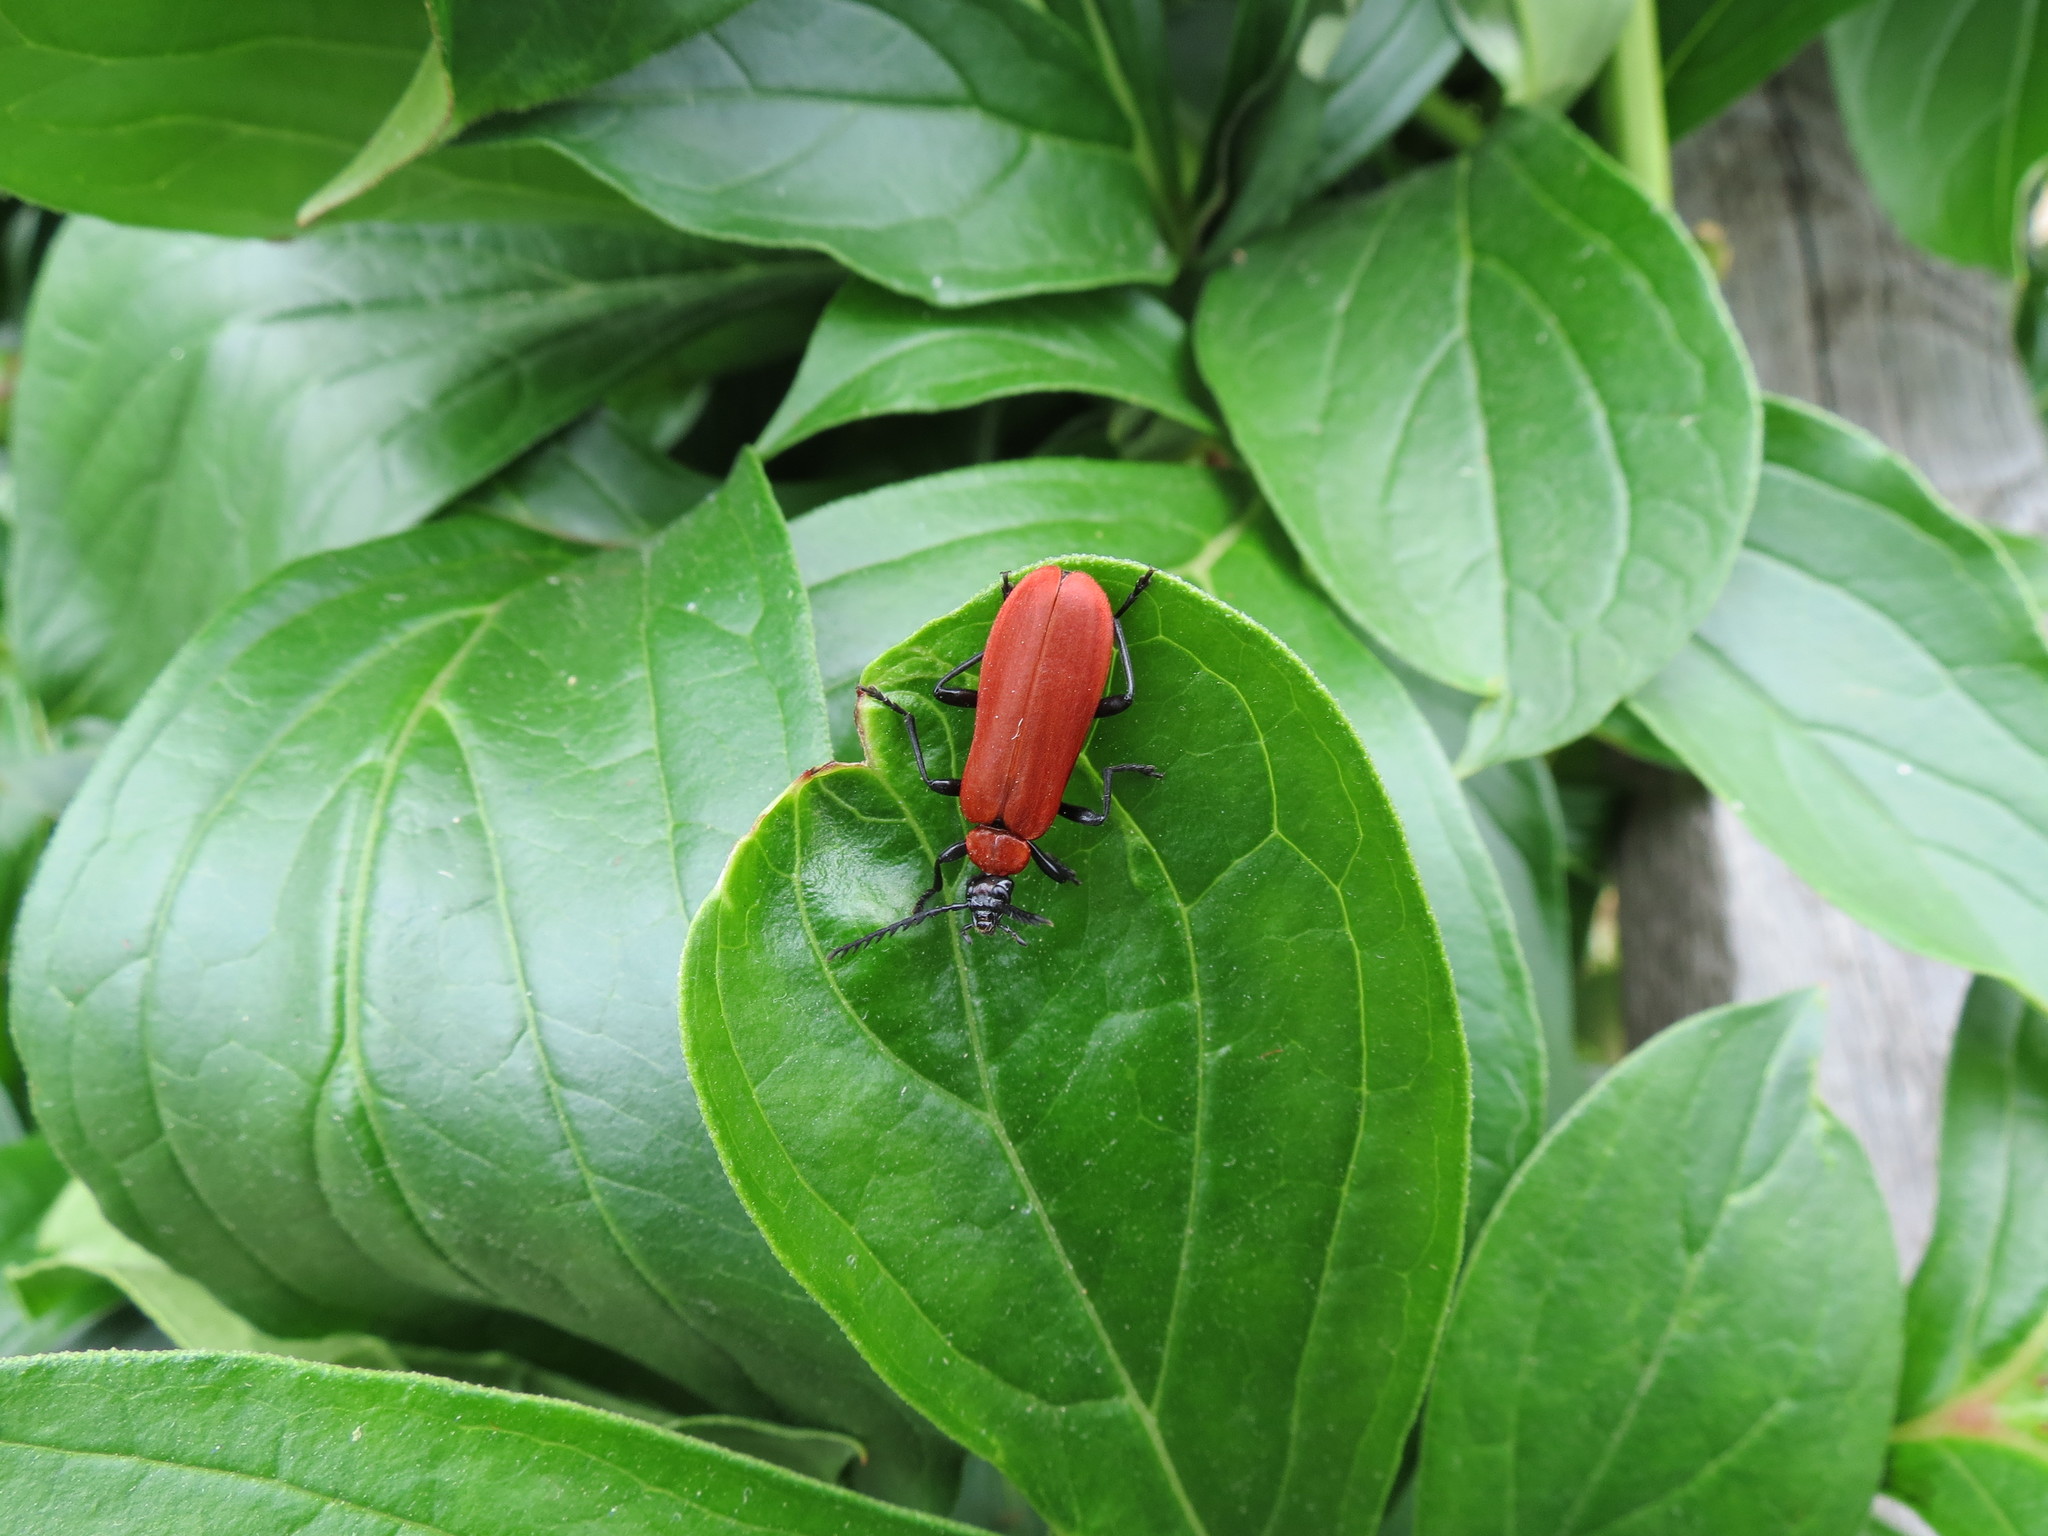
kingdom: Animalia
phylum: Arthropoda
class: Insecta
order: Coleoptera
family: Pyrochroidae
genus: Pyrochroa
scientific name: Pyrochroa coccinea
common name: Black-headed cardinal beetle
